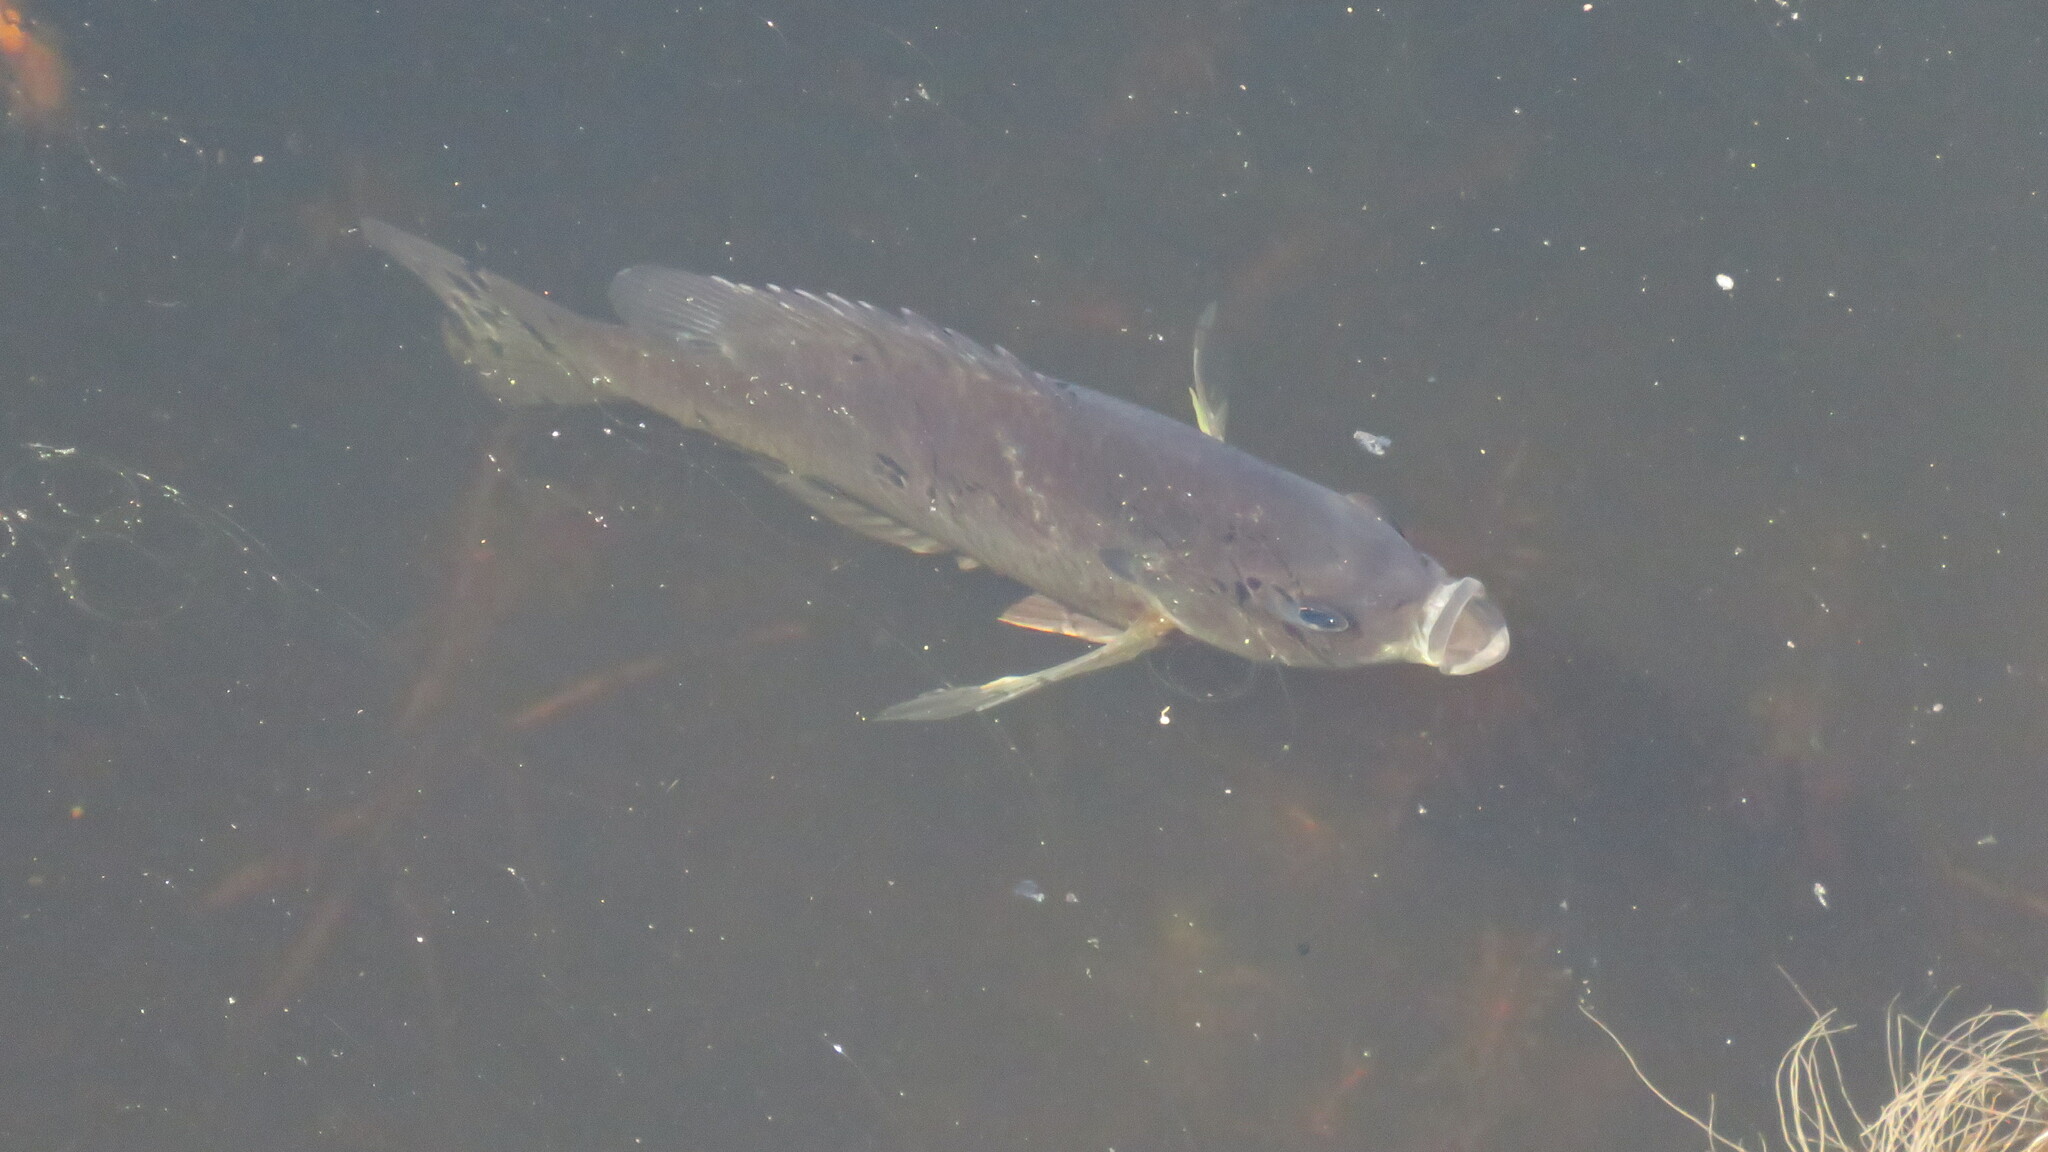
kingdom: Animalia
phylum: Chordata
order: Perciformes
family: Centrarchidae
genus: Lepomis
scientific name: Lepomis macrochirus
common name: Bluegill
